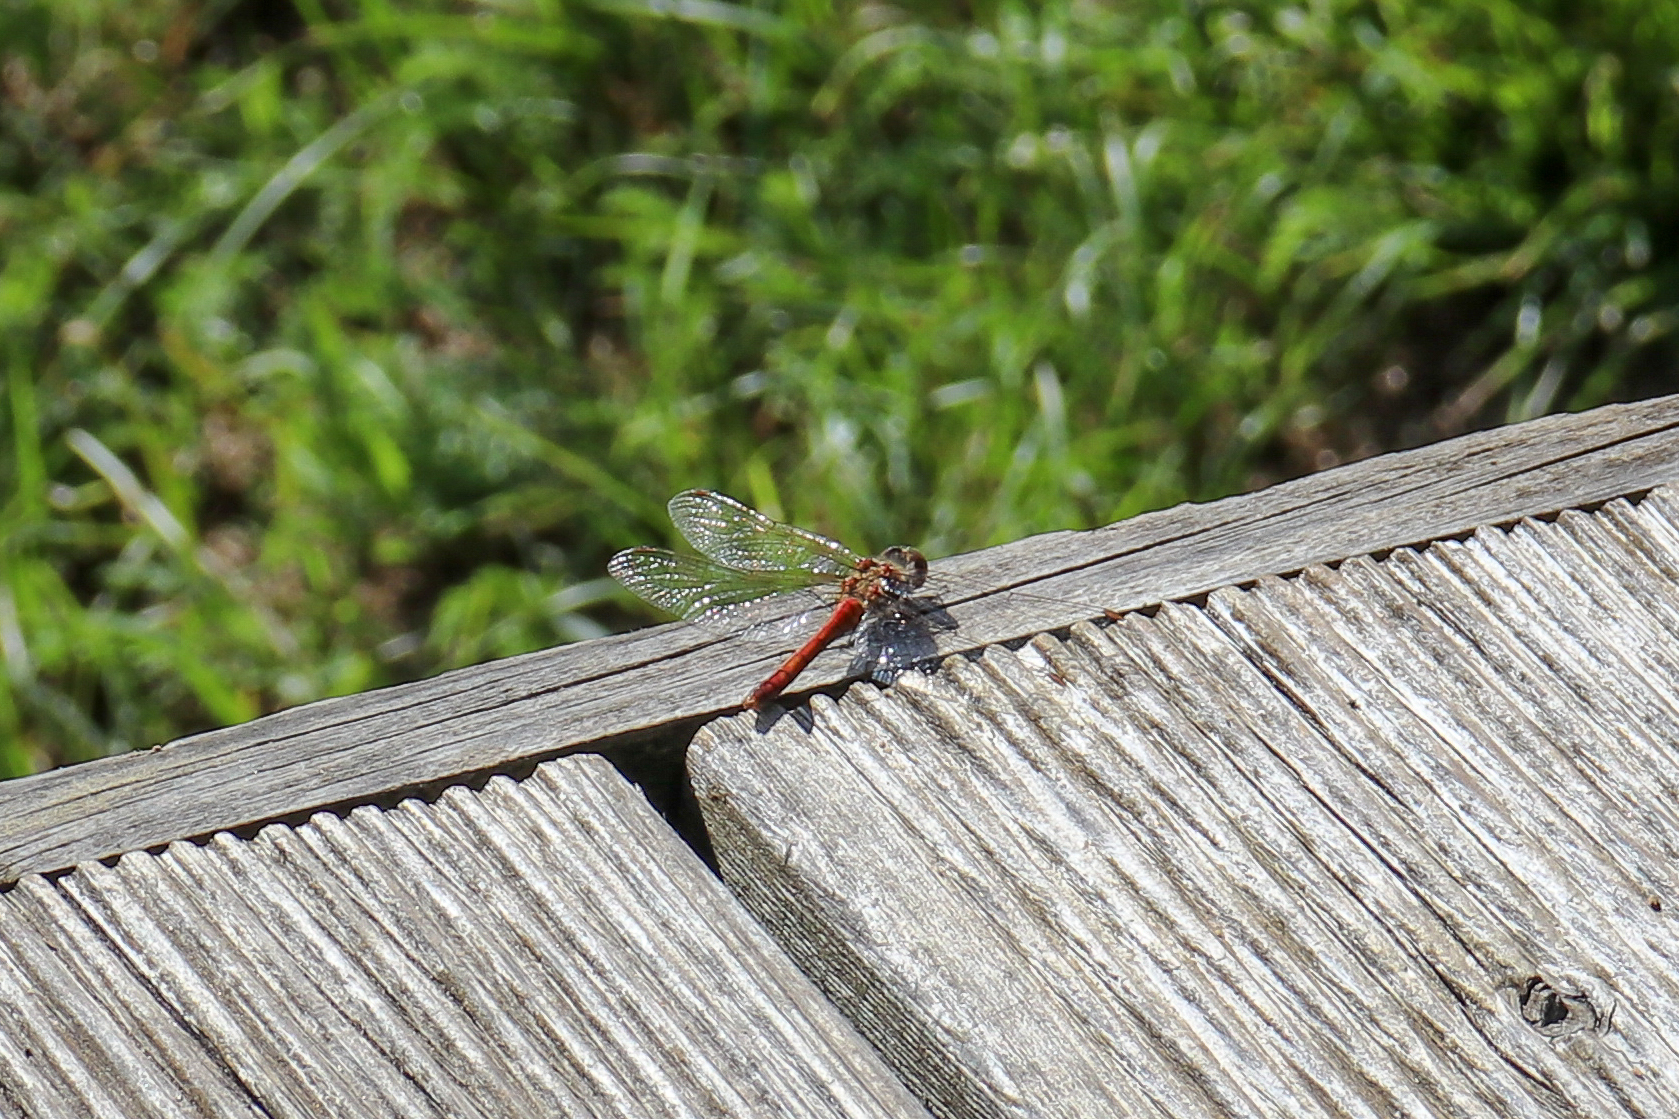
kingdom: Animalia
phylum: Arthropoda
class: Insecta
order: Odonata
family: Libellulidae
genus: Sympetrum
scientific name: Sympetrum vulgatum
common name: Vagrant darter
